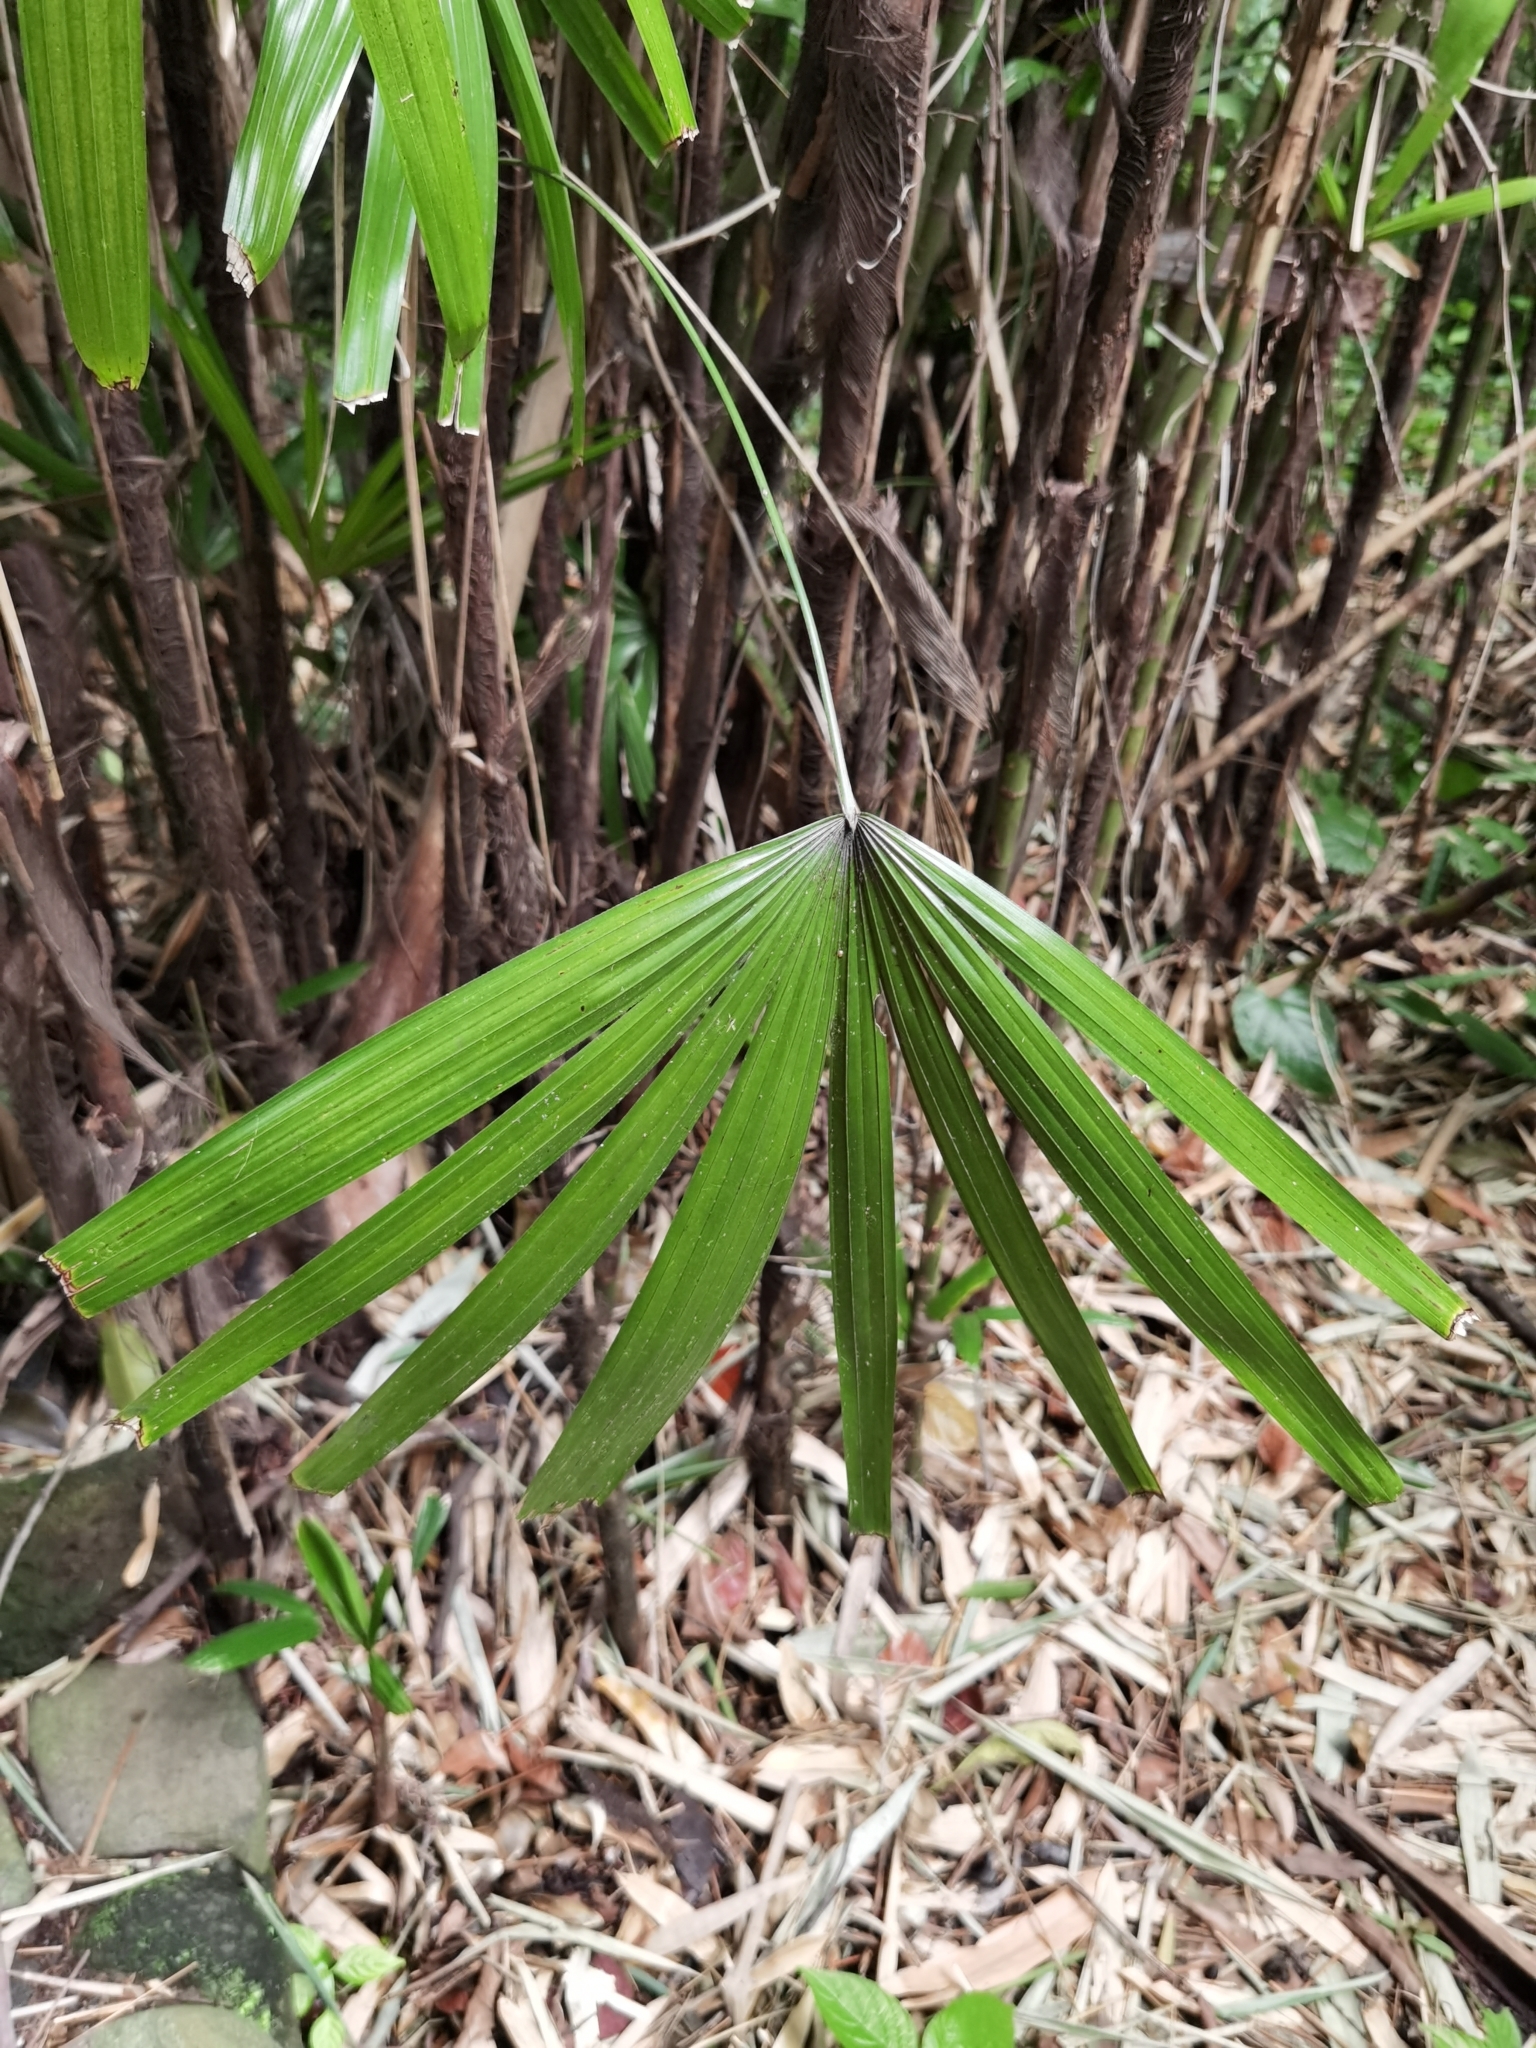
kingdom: Plantae
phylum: Tracheophyta
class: Liliopsida
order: Arecales
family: Arecaceae
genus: Rhapis
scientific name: Rhapis excelsa
